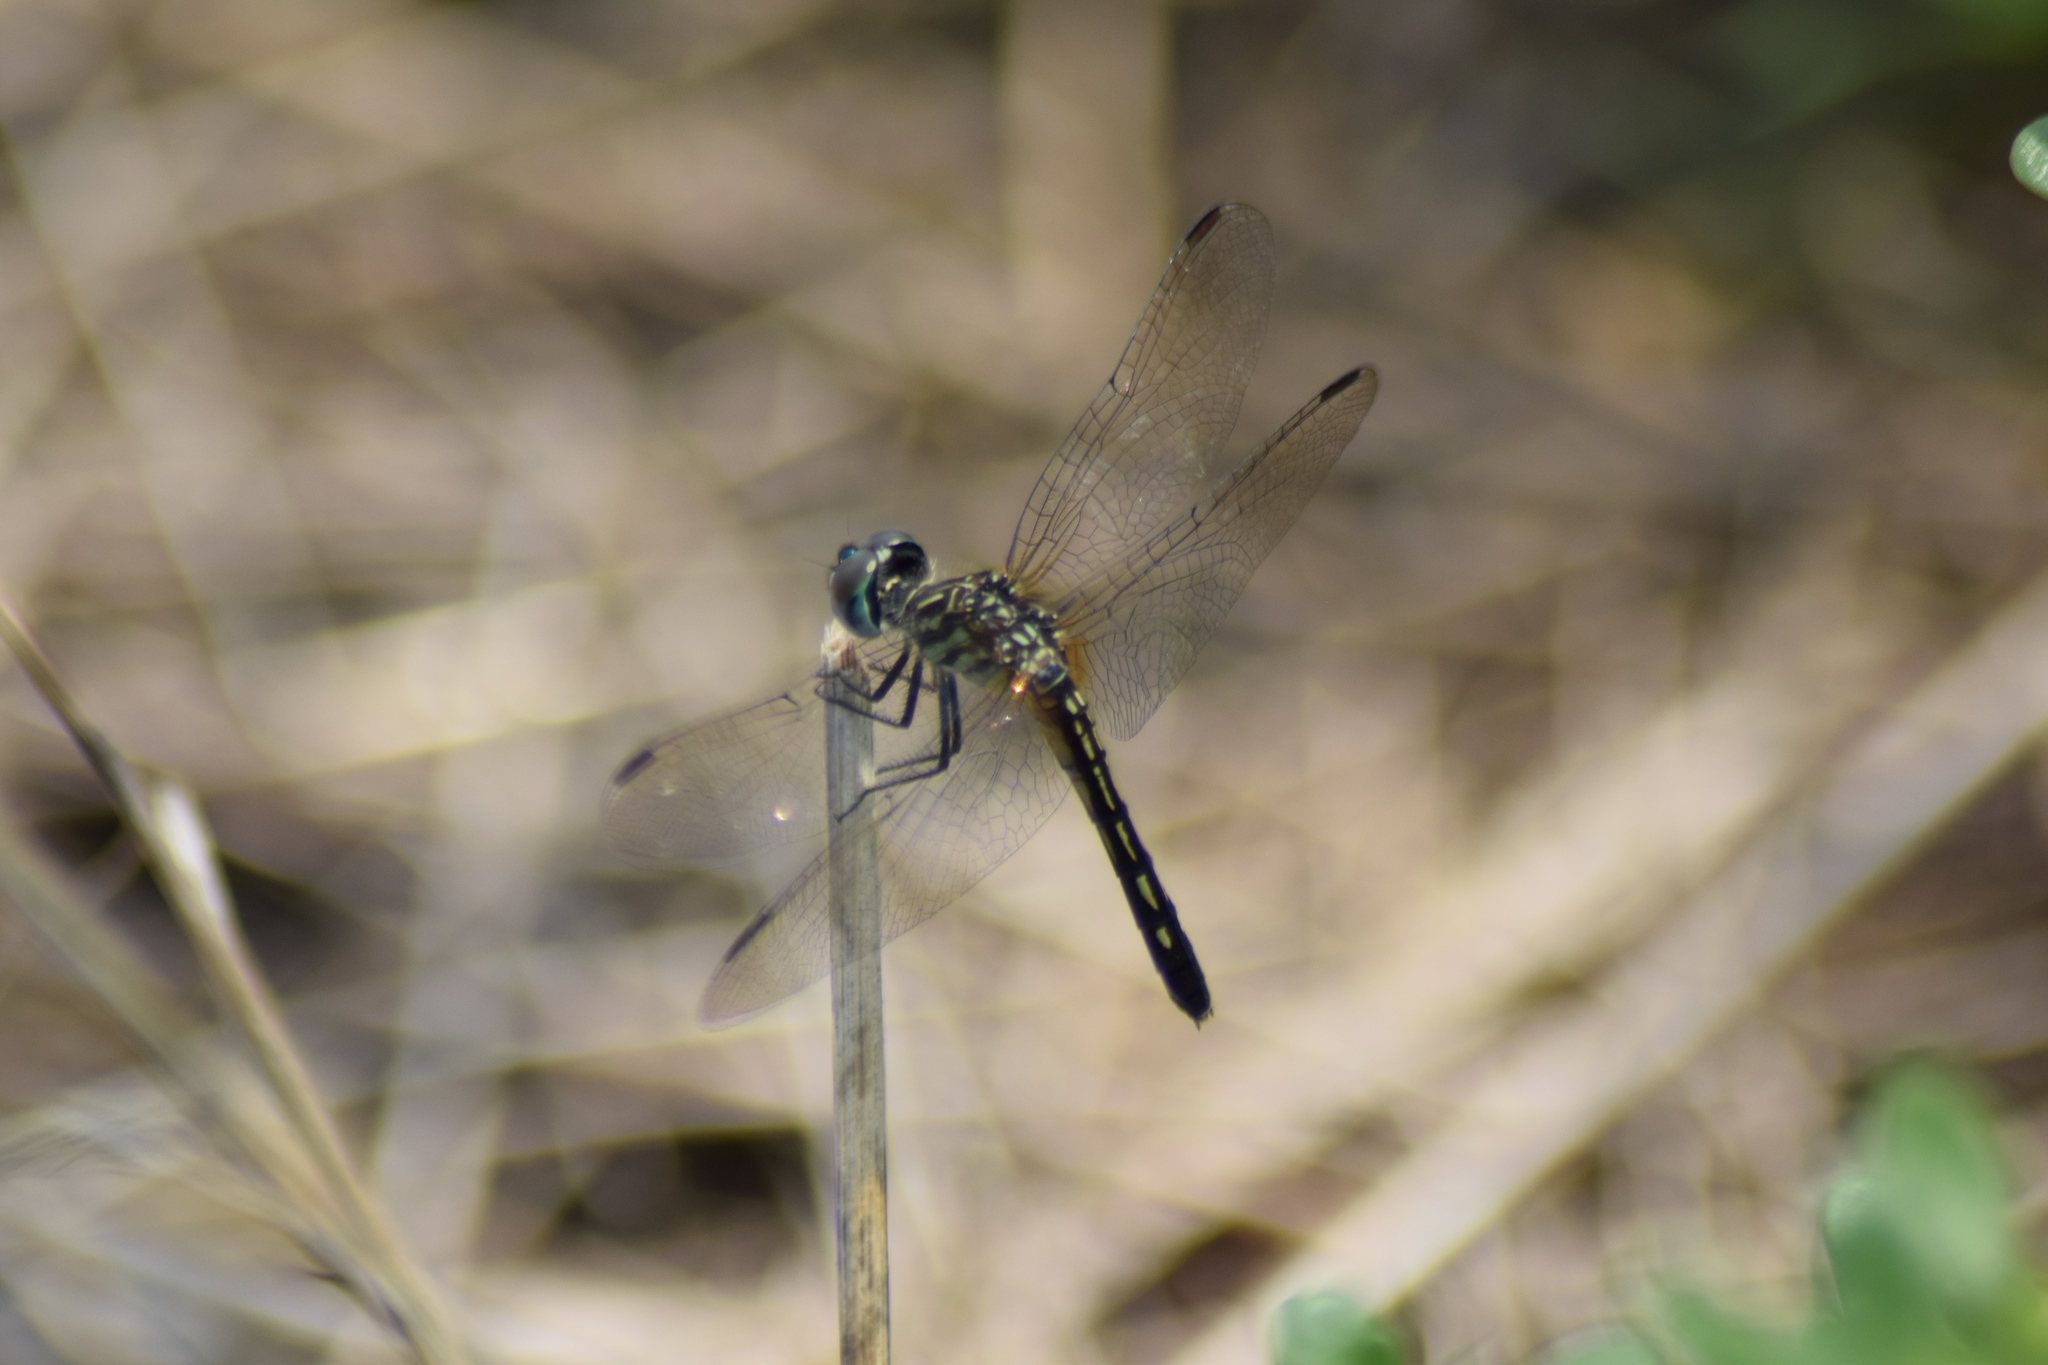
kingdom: Animalia
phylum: Arthropoda
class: Insecta
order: Odonata
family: Libellulidae
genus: Pachydiplax
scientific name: Pachydiplax longipennis
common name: Blue dasher
